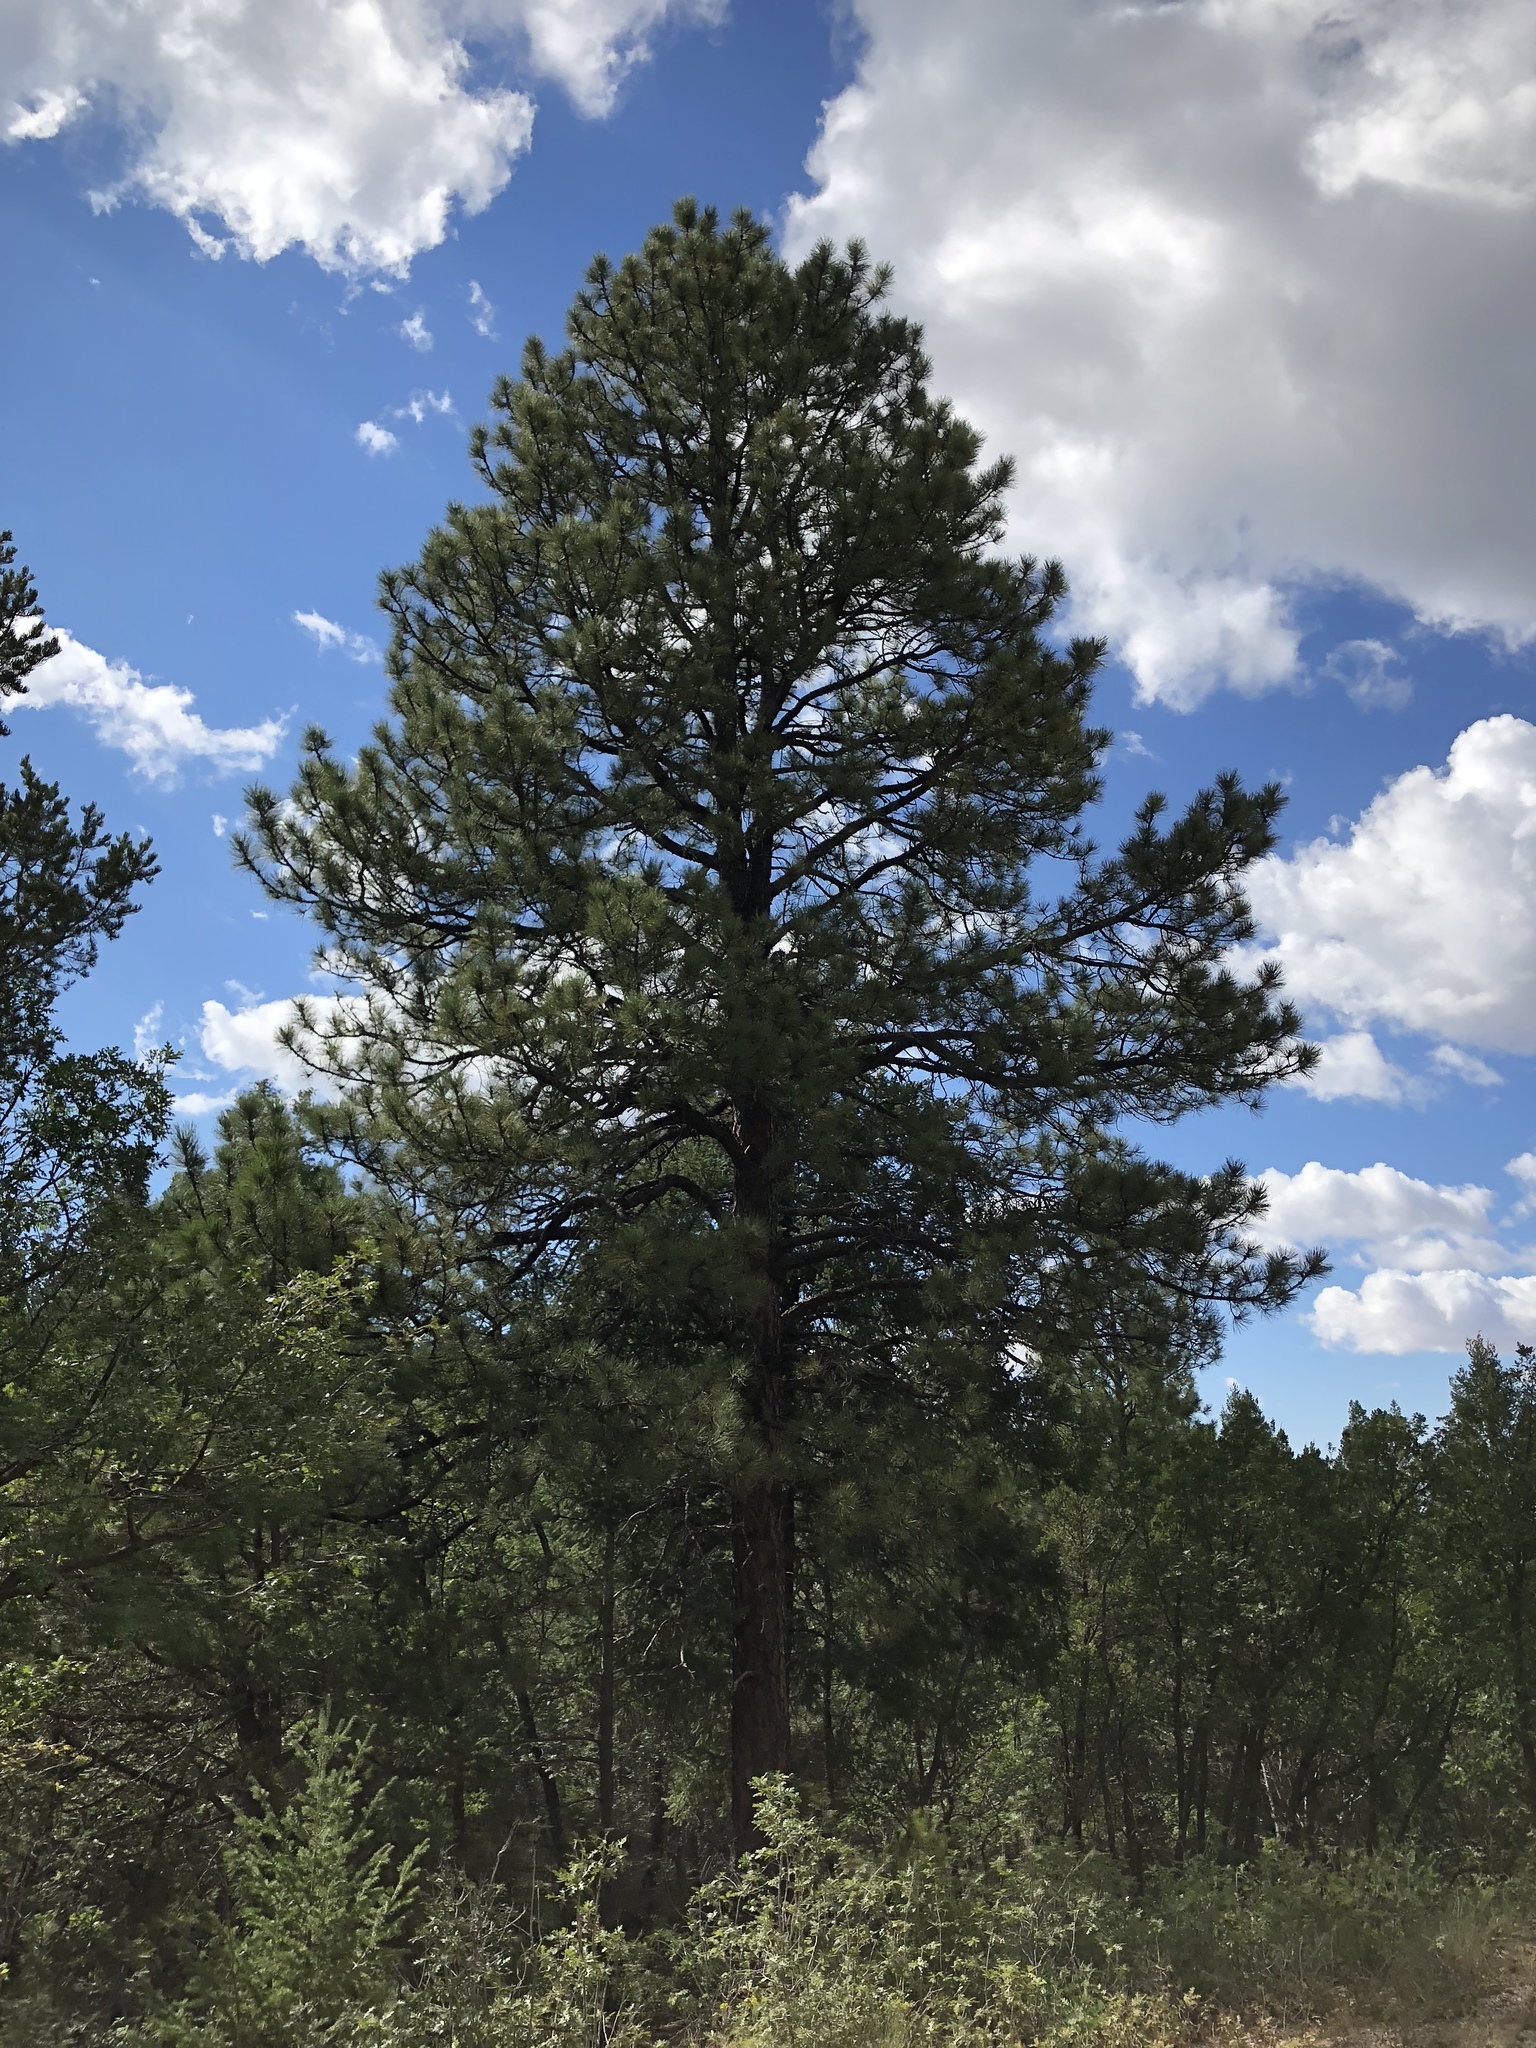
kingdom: Plantae
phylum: Tracheophyta
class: Pinopsida
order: Pinales
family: Pinaceae
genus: Pinus
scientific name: Pinus ponderosa
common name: Western yellow-pine
